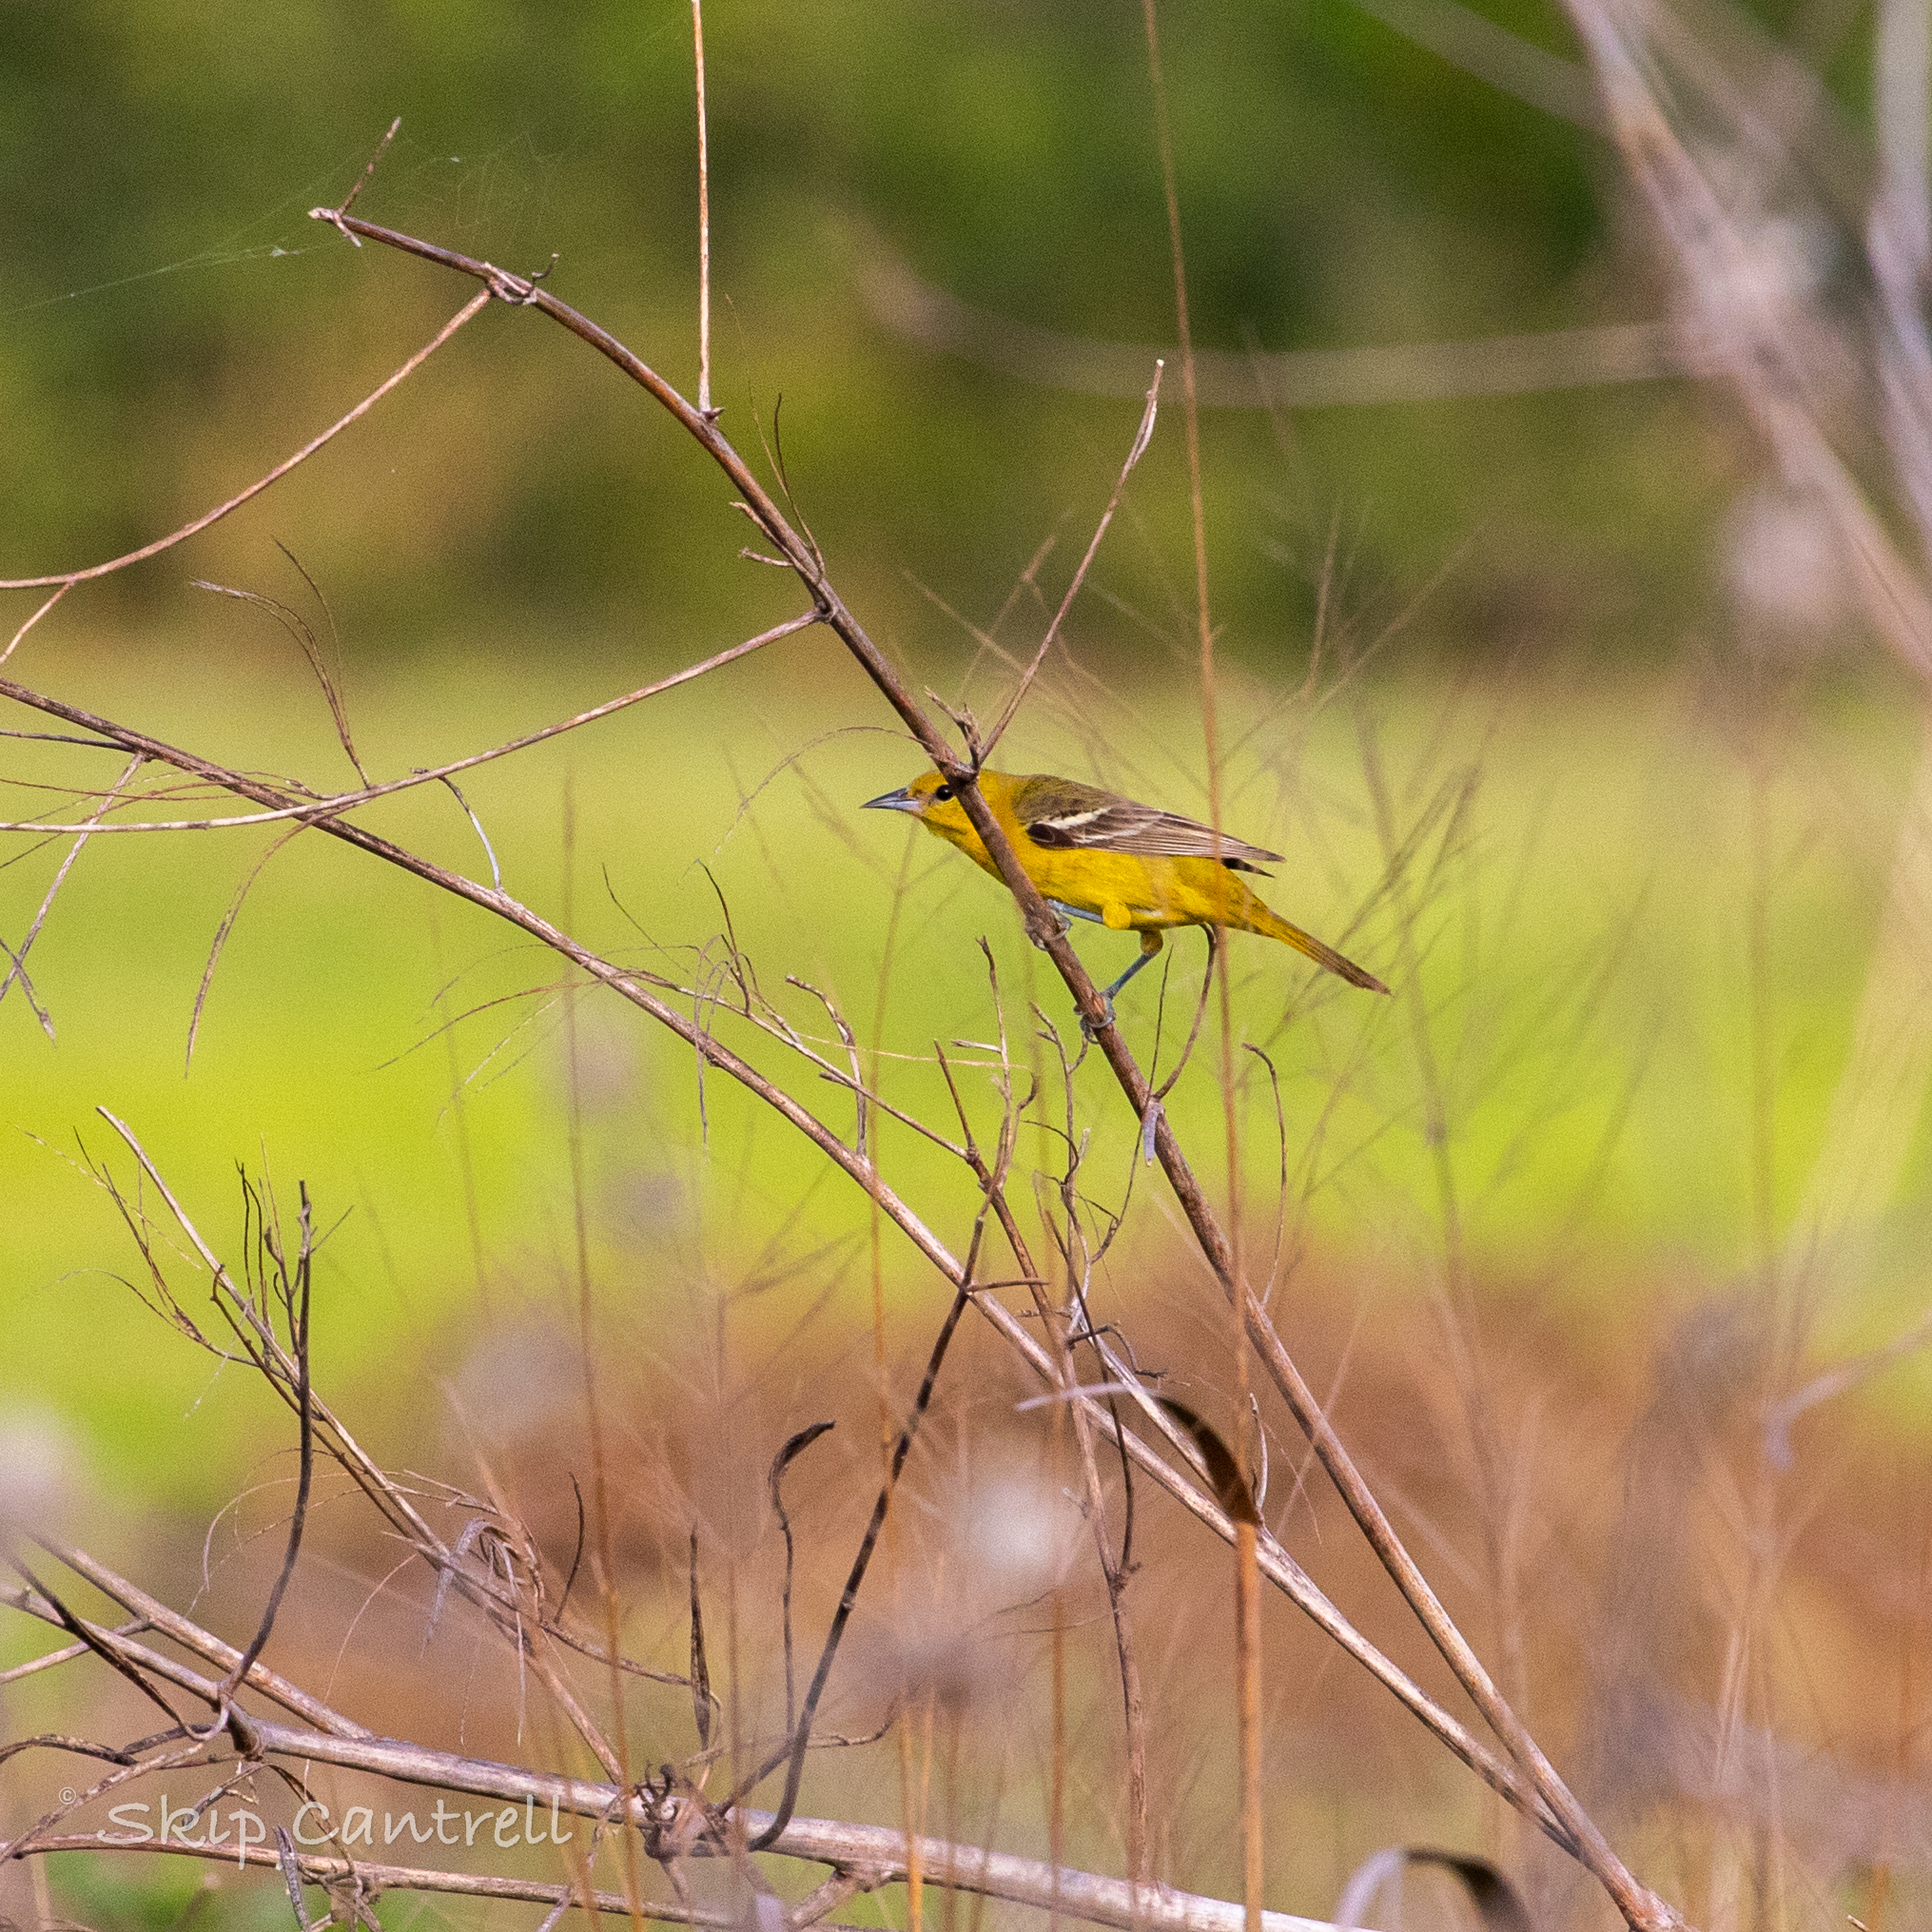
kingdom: Animalia
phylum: Chordata
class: Aves
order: Passeriformes
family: Icteridae
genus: Icterus
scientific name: Icterus spurius
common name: Orchard oriole
